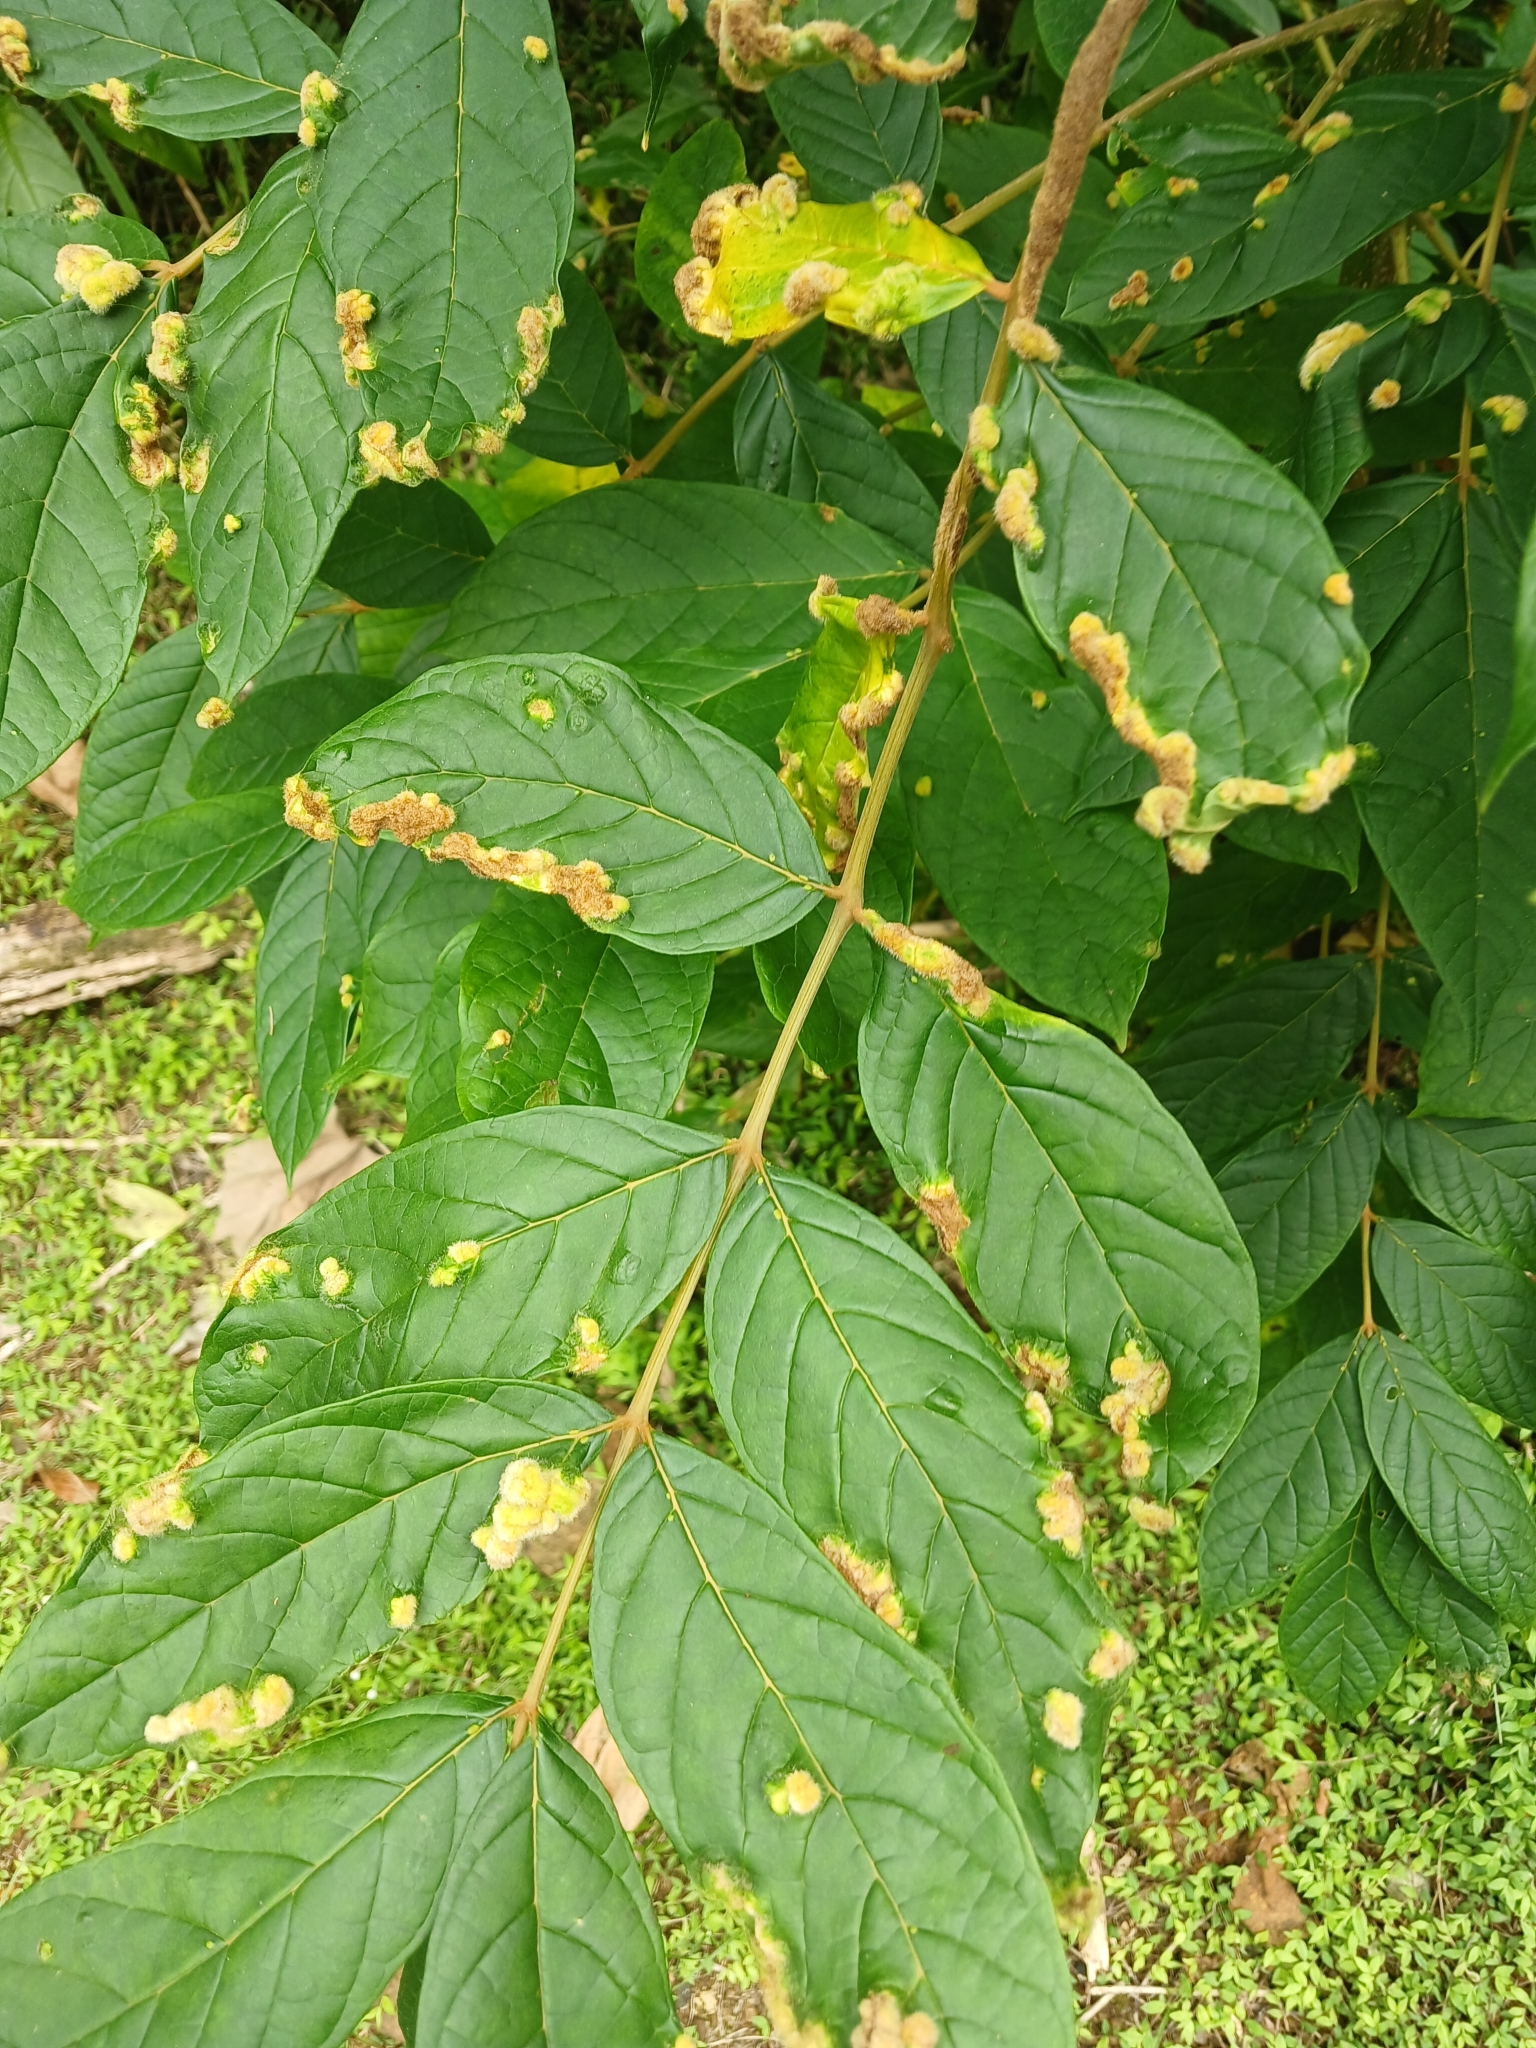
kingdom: Animalia
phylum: Arthropoda
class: Arachnida
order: Trombidiformes
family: Eriophyidae
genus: Colomerus
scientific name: Colomerus spathodeae
